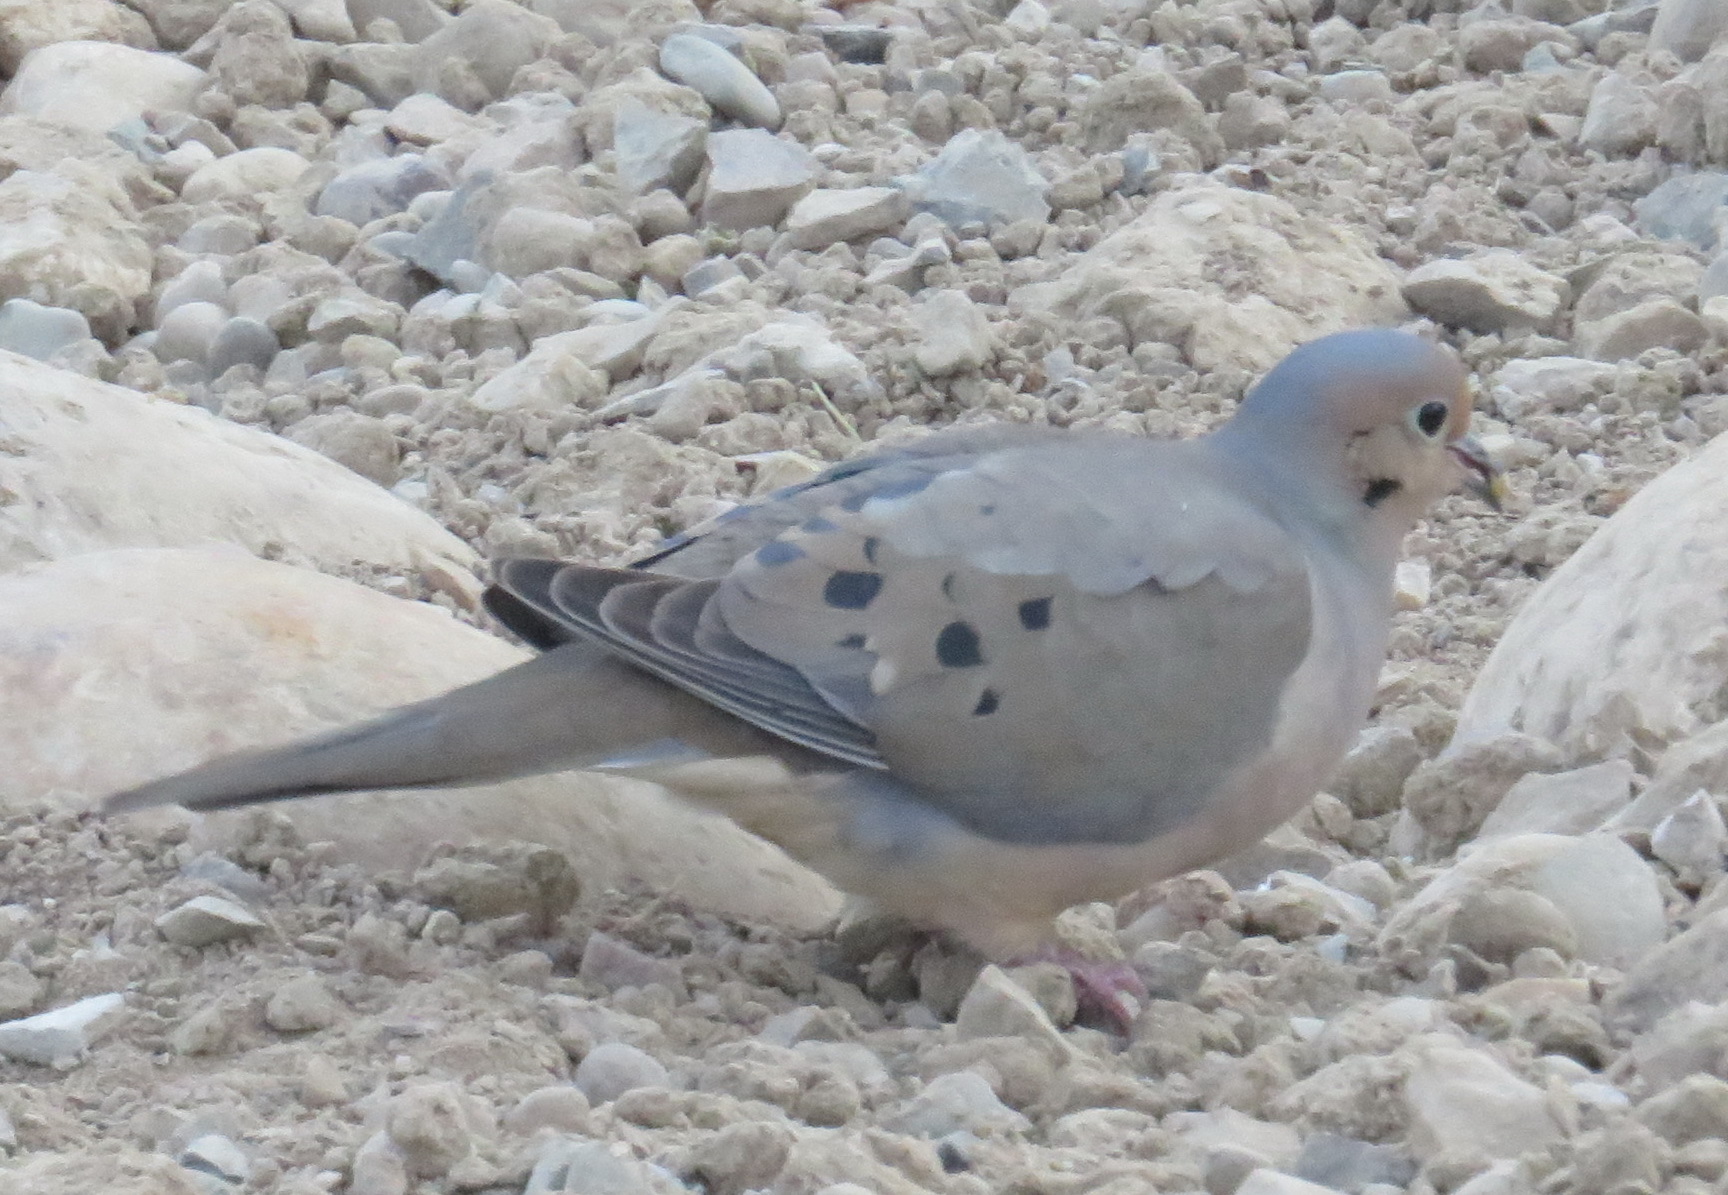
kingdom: Animalia
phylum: Chordata
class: Aves
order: Columbiformes
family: Columbidae
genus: Zenaida
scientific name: Zenaida macroura
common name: Mourning dove
